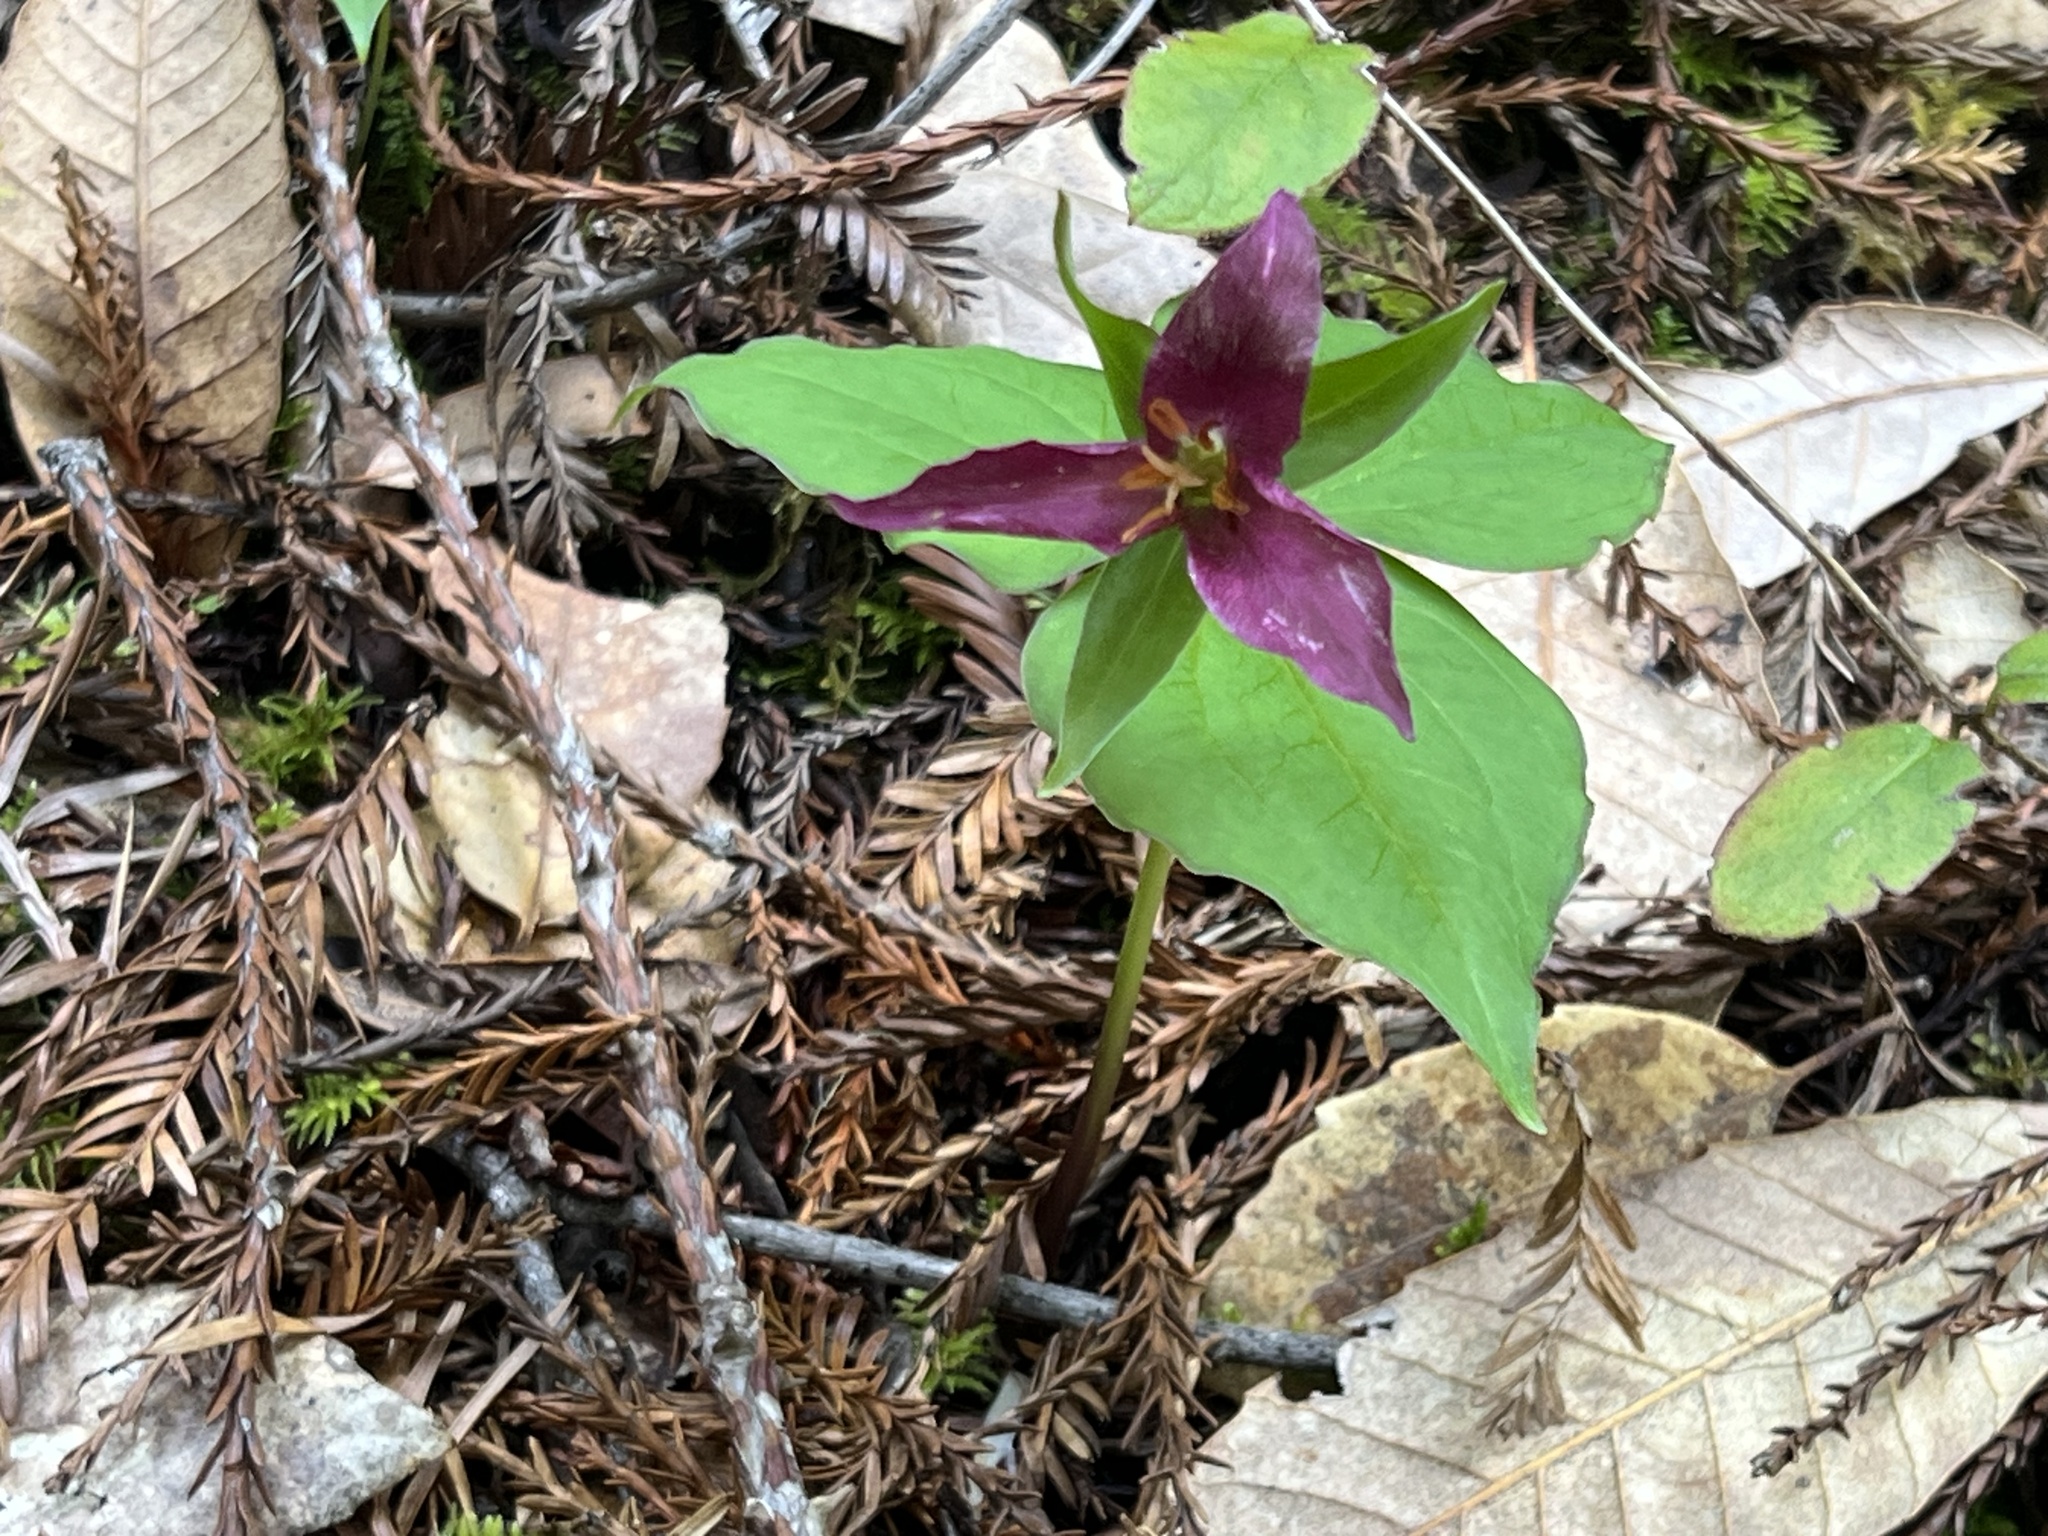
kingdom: Plantae
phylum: Tracheophyta
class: Liliopsida
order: Liliales
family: Melanthiaceae
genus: Trillium
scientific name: Trillium ovatum
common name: Pacific trillium
